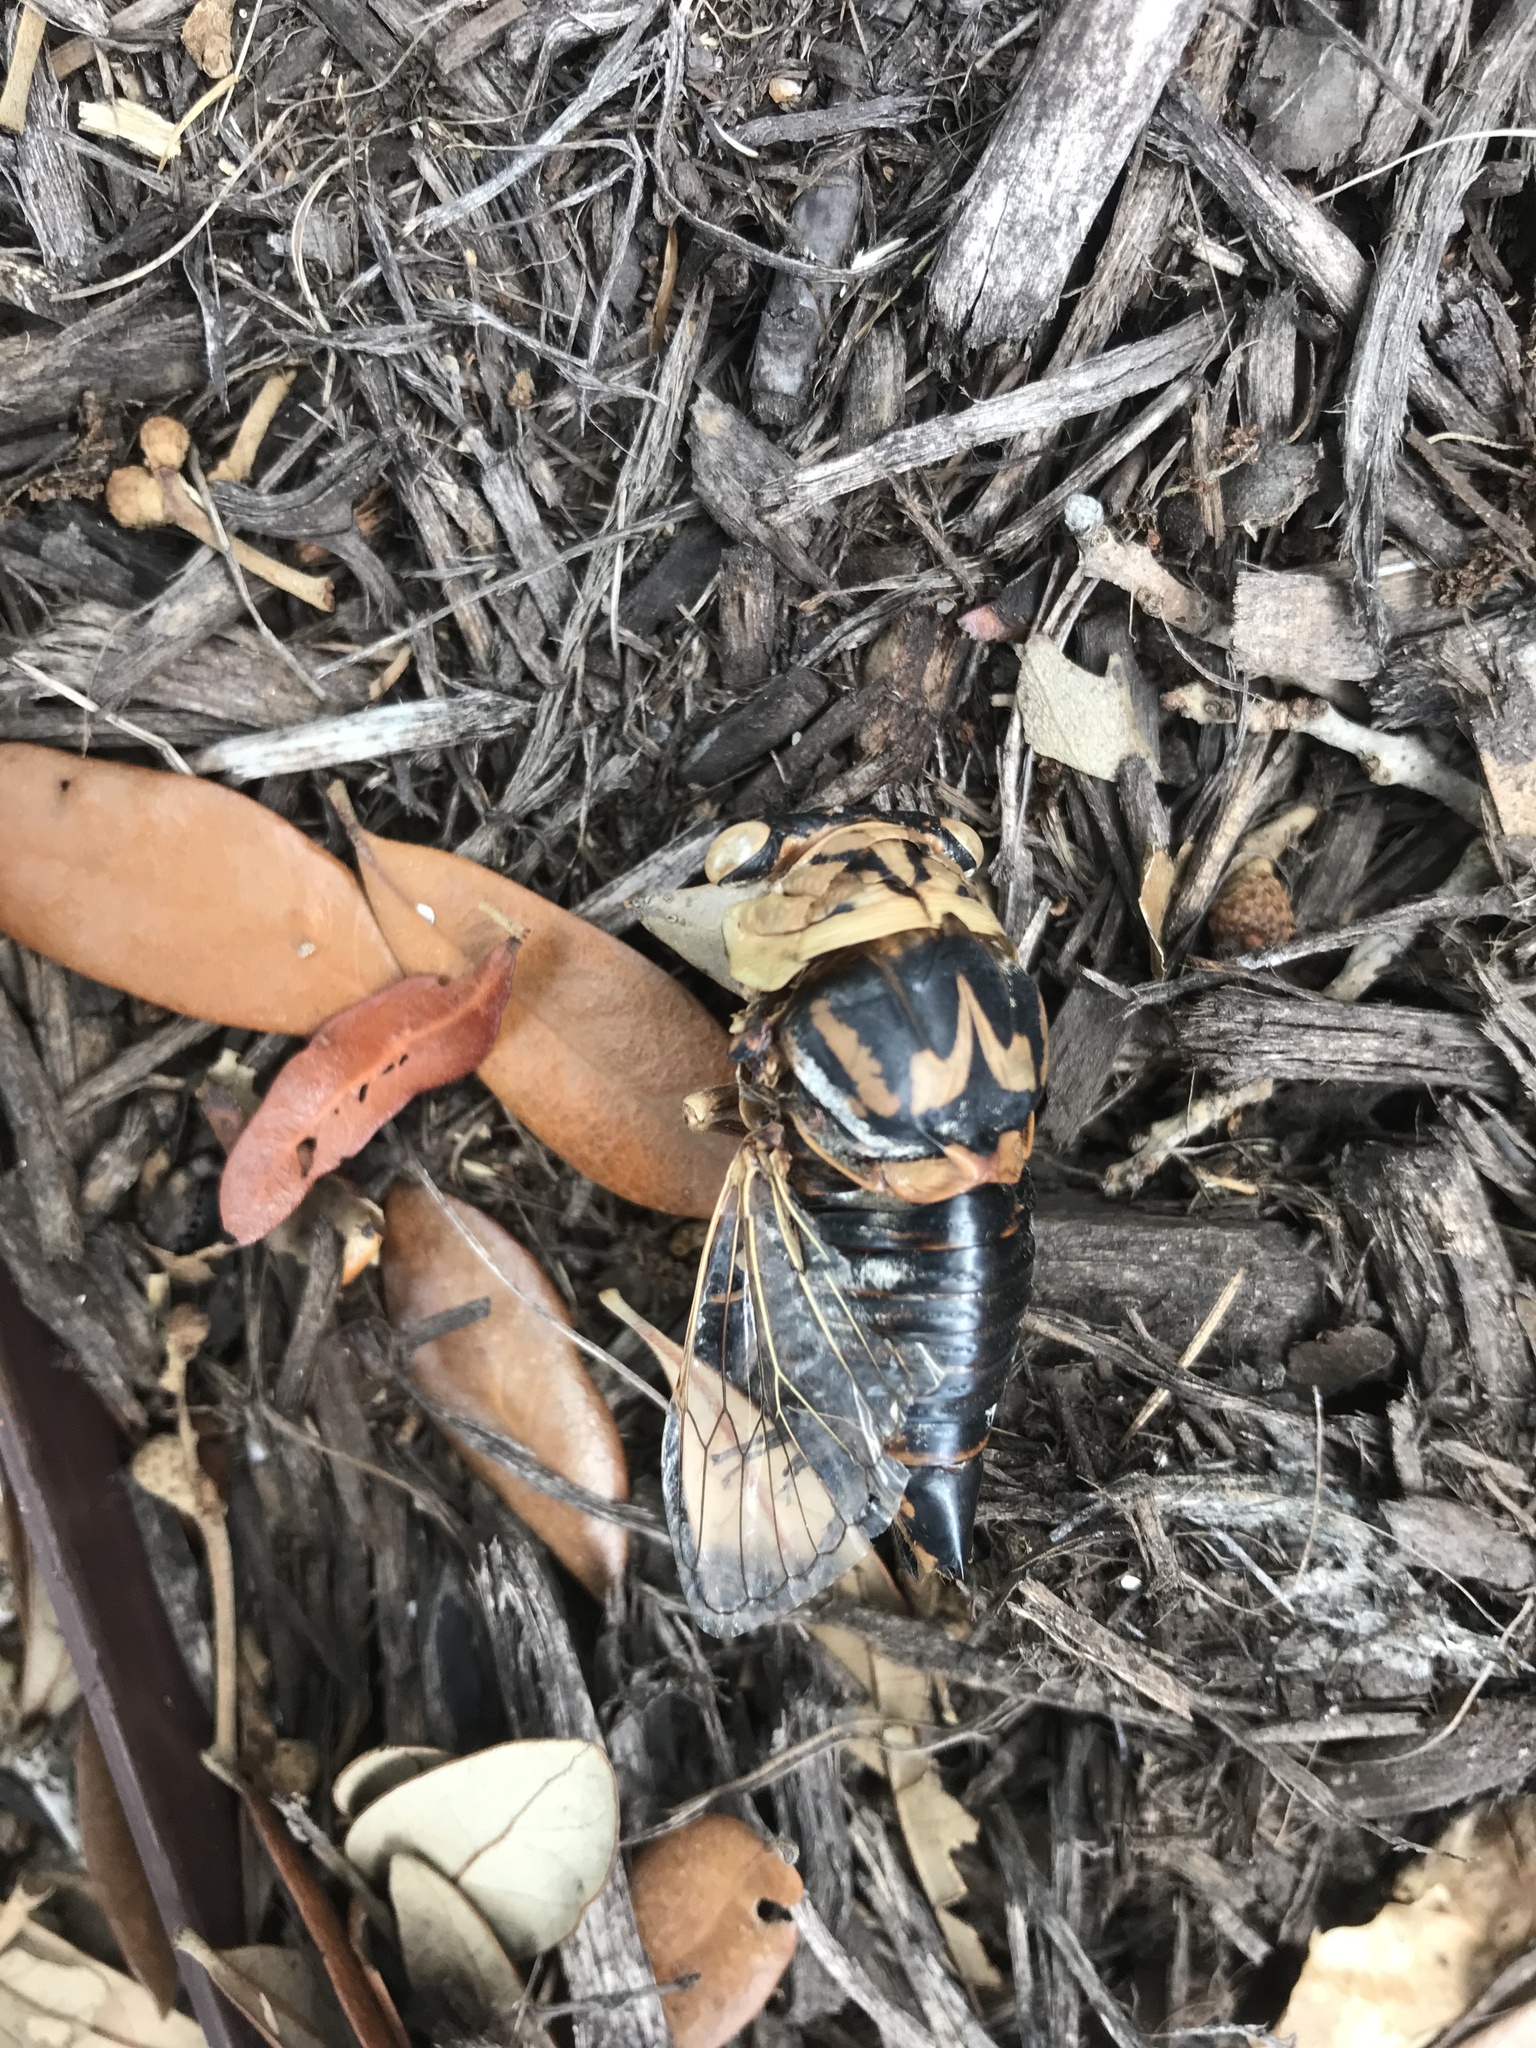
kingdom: Animalia
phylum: Arthropoda
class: Insecta
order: Hemiptera
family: Cicadidae
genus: Megatibicen
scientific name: Megatibicen resh
